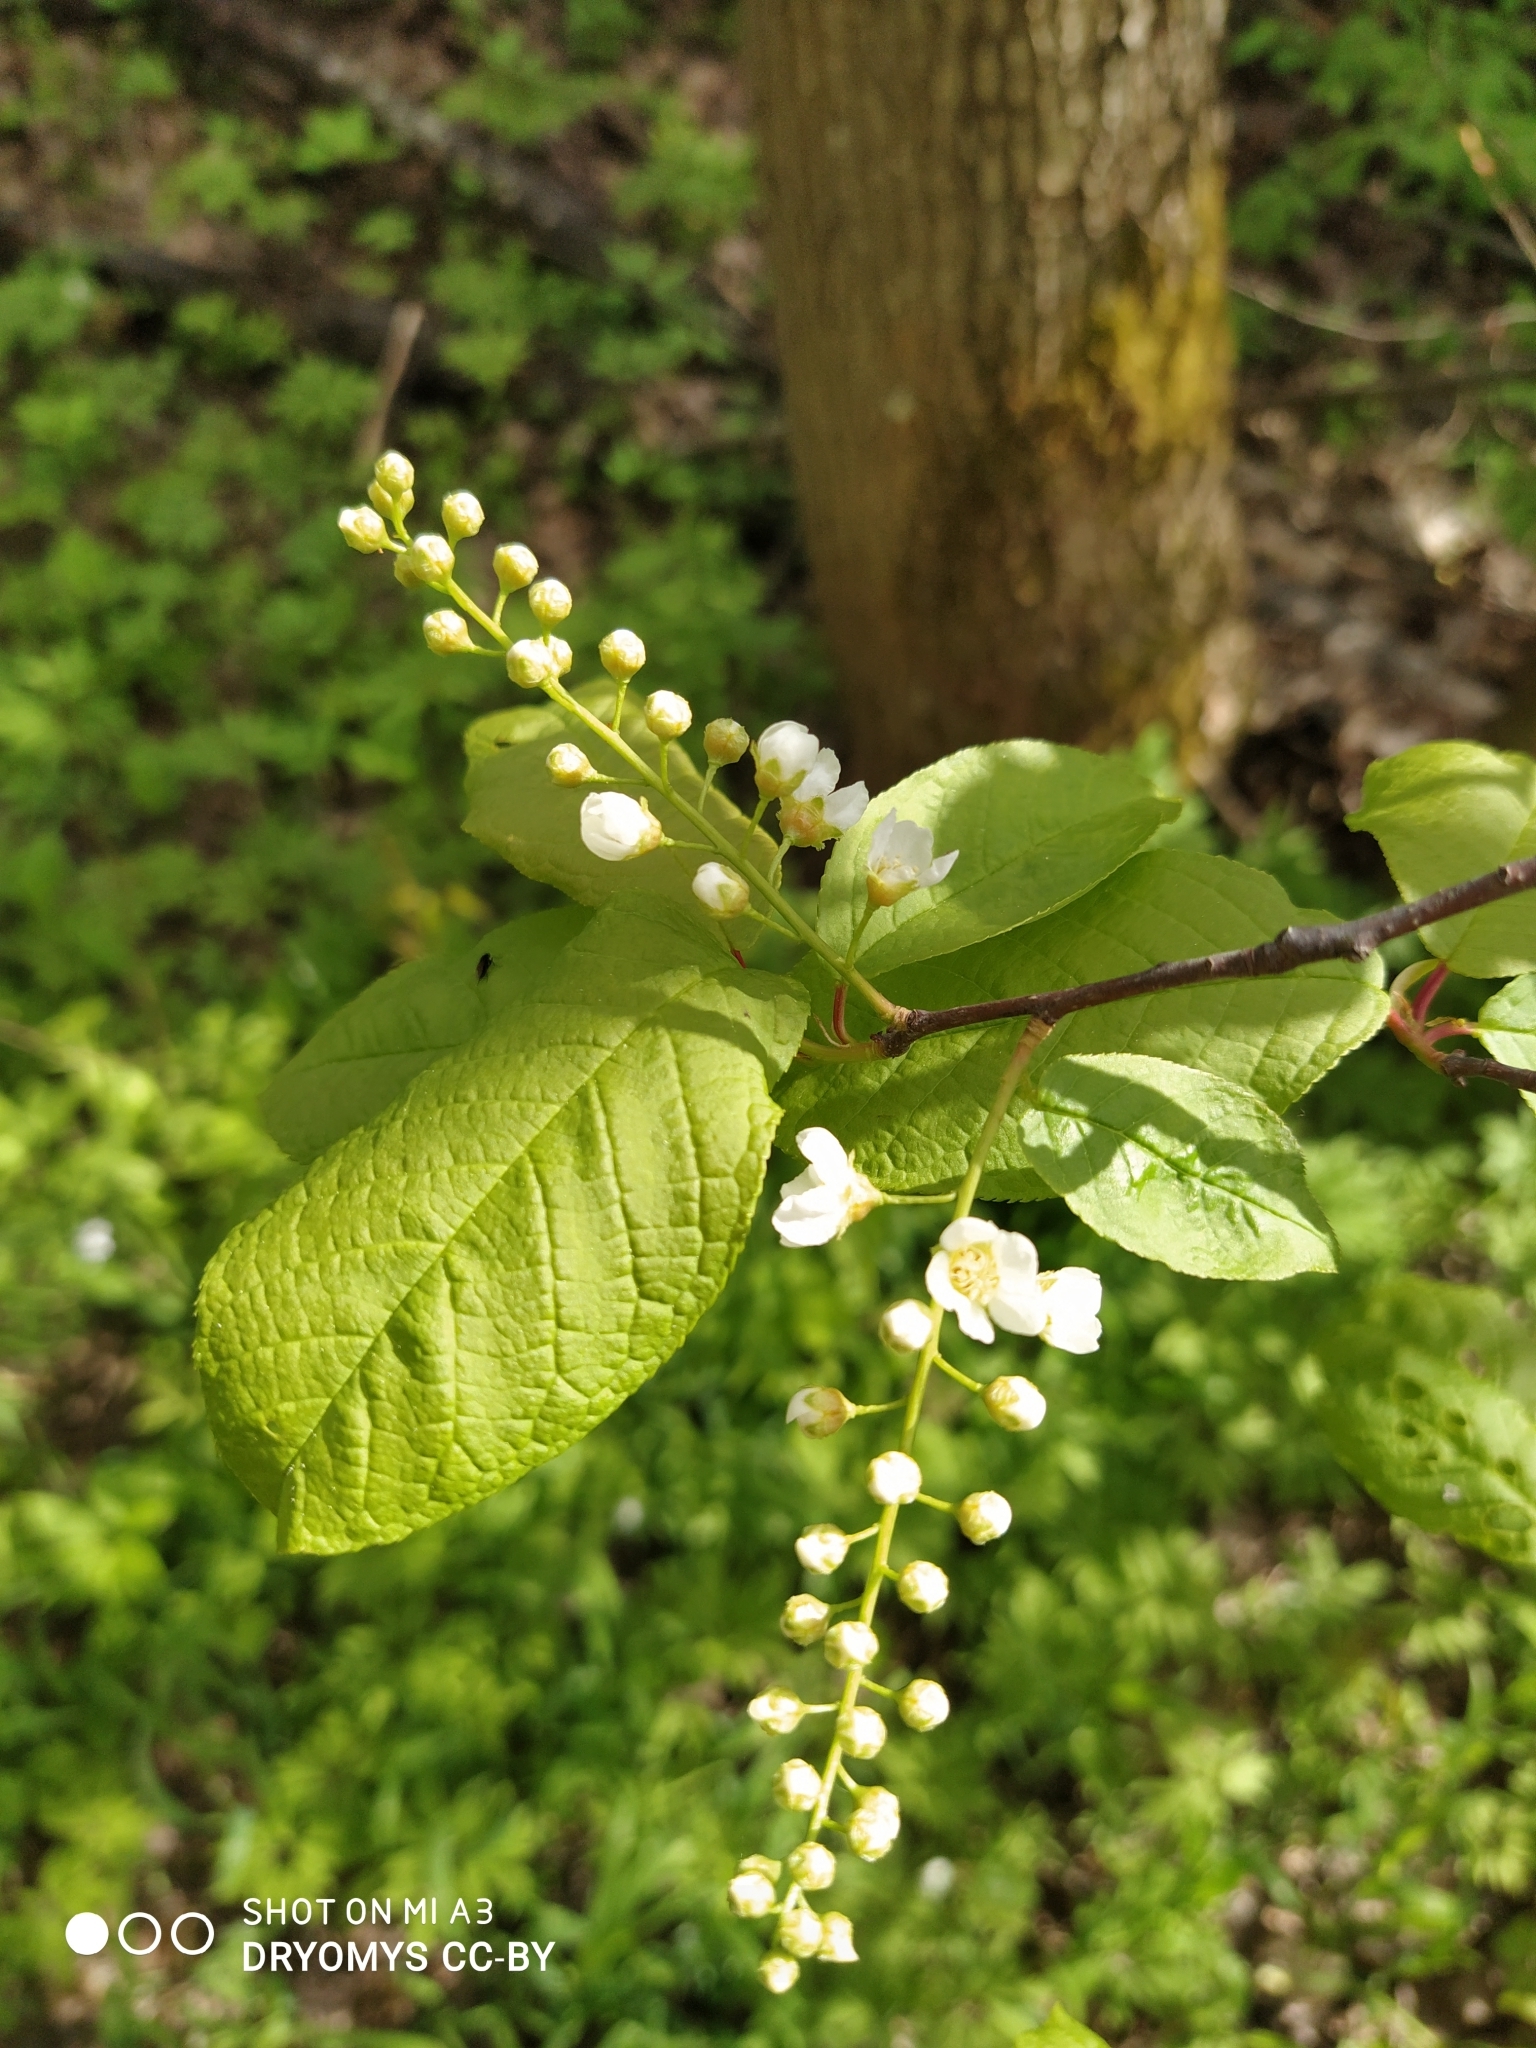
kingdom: Plantae
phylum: Tracheophyta
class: Magnoliopsida
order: Rosales
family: Rosaceae
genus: Prunus
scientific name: Prunus padus
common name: Bird cherry
